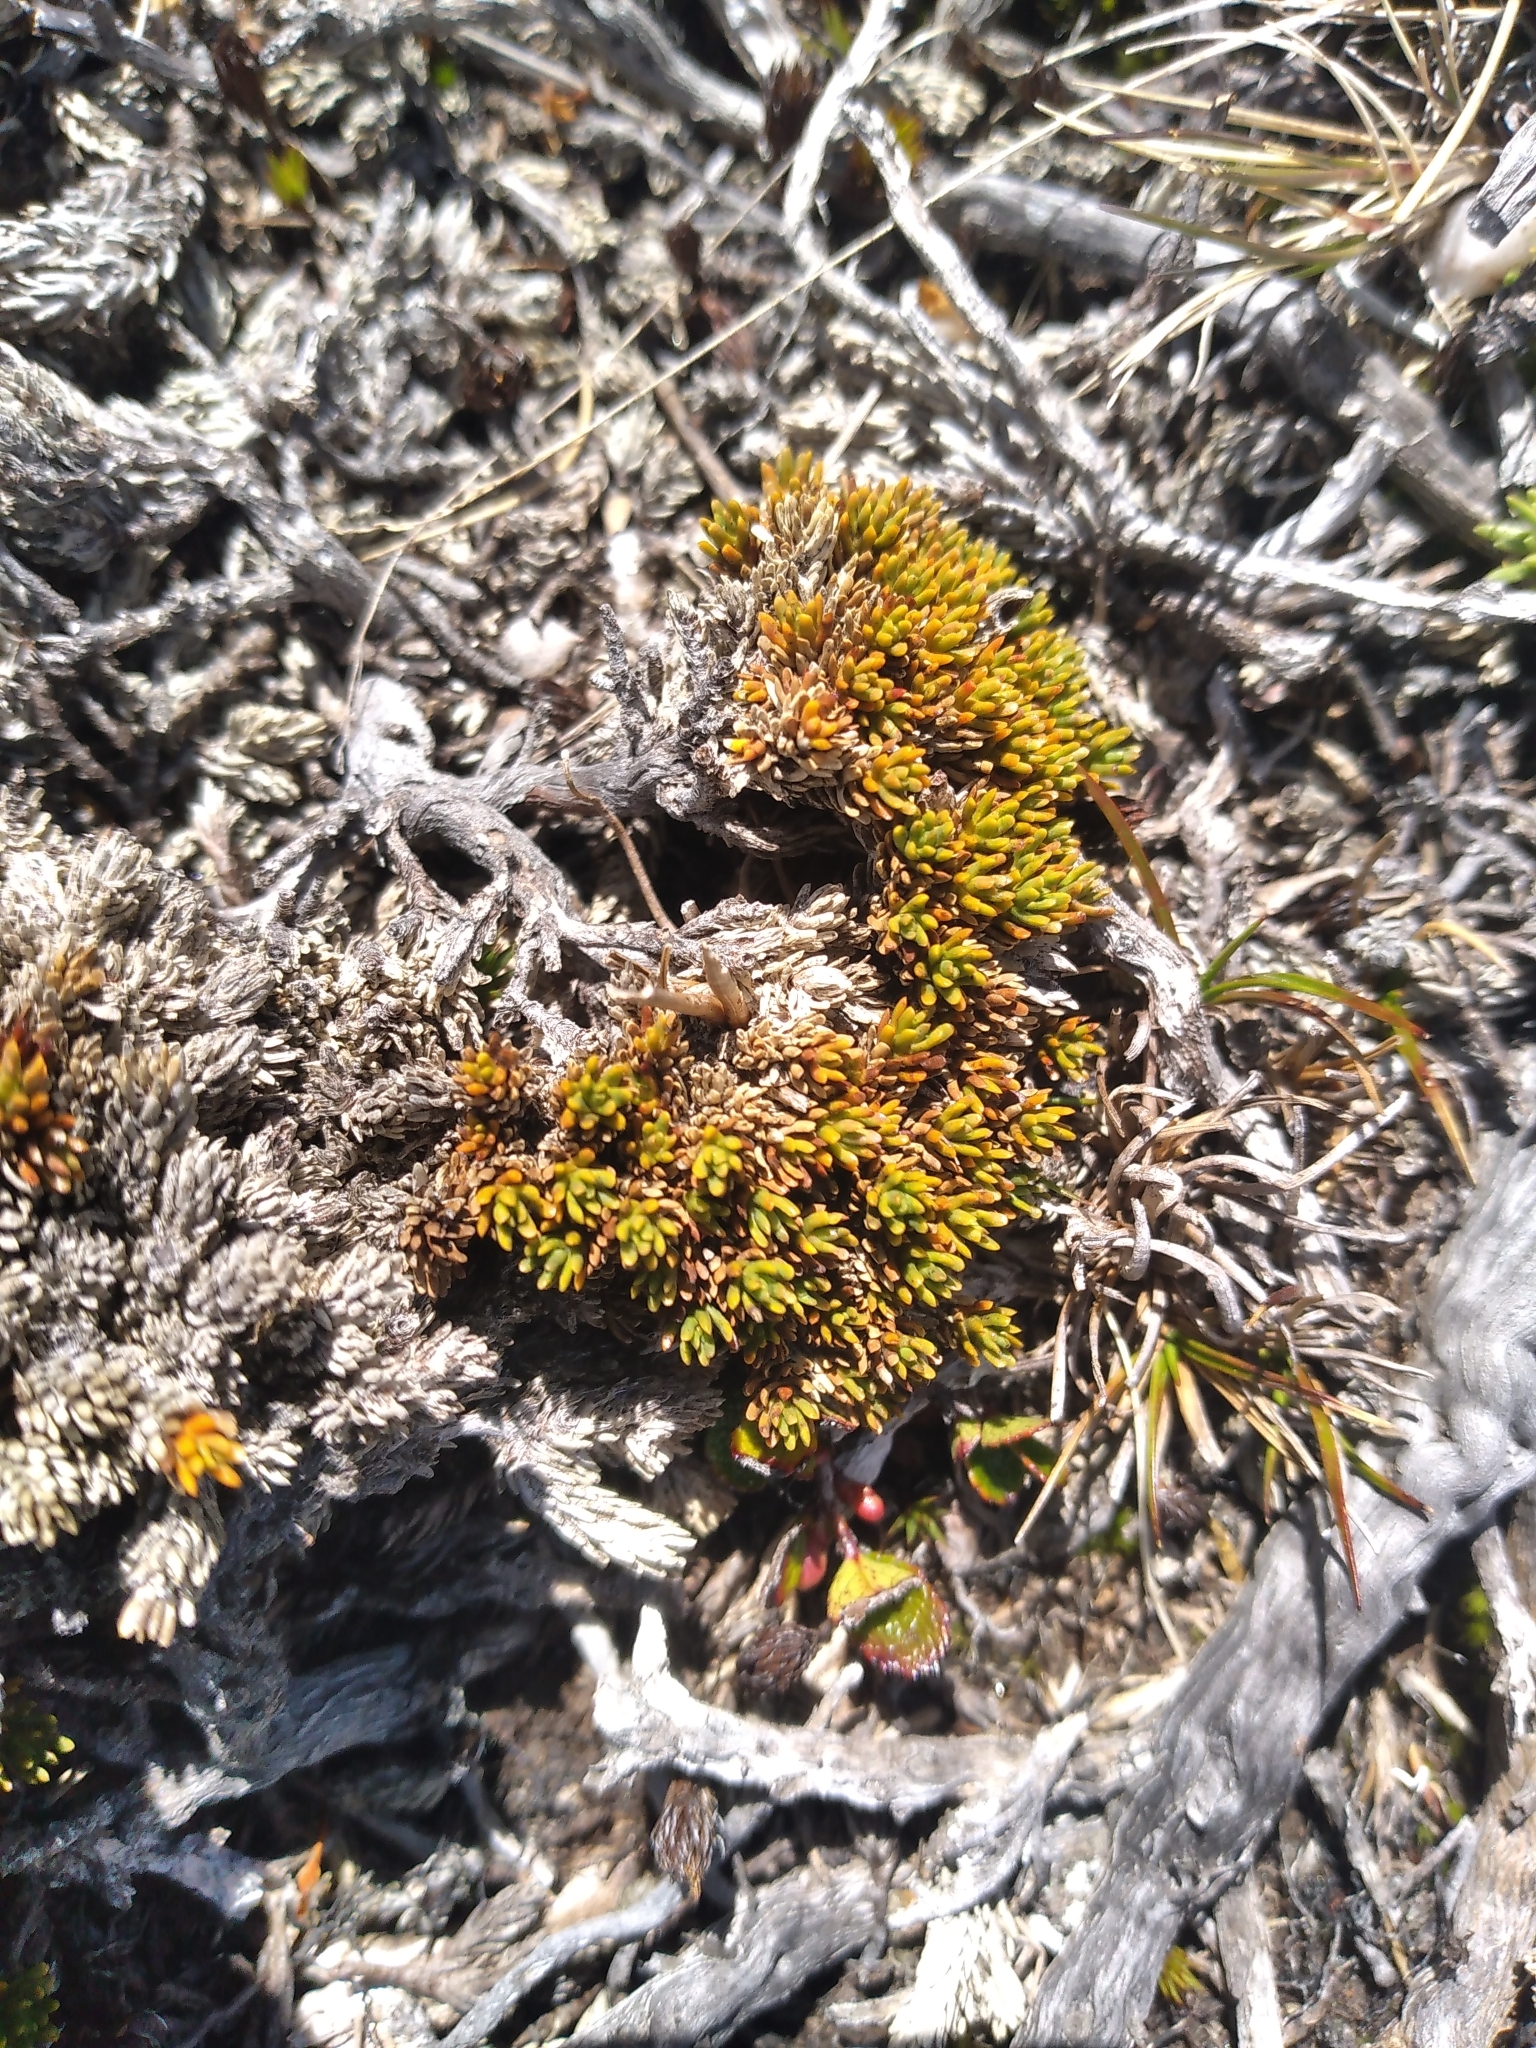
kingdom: Plantae
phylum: Tracheophyta
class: Magnoliopsida
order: Ericales
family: Ericaceae
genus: Dracophyllum
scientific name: Dracophyllum muscoides
